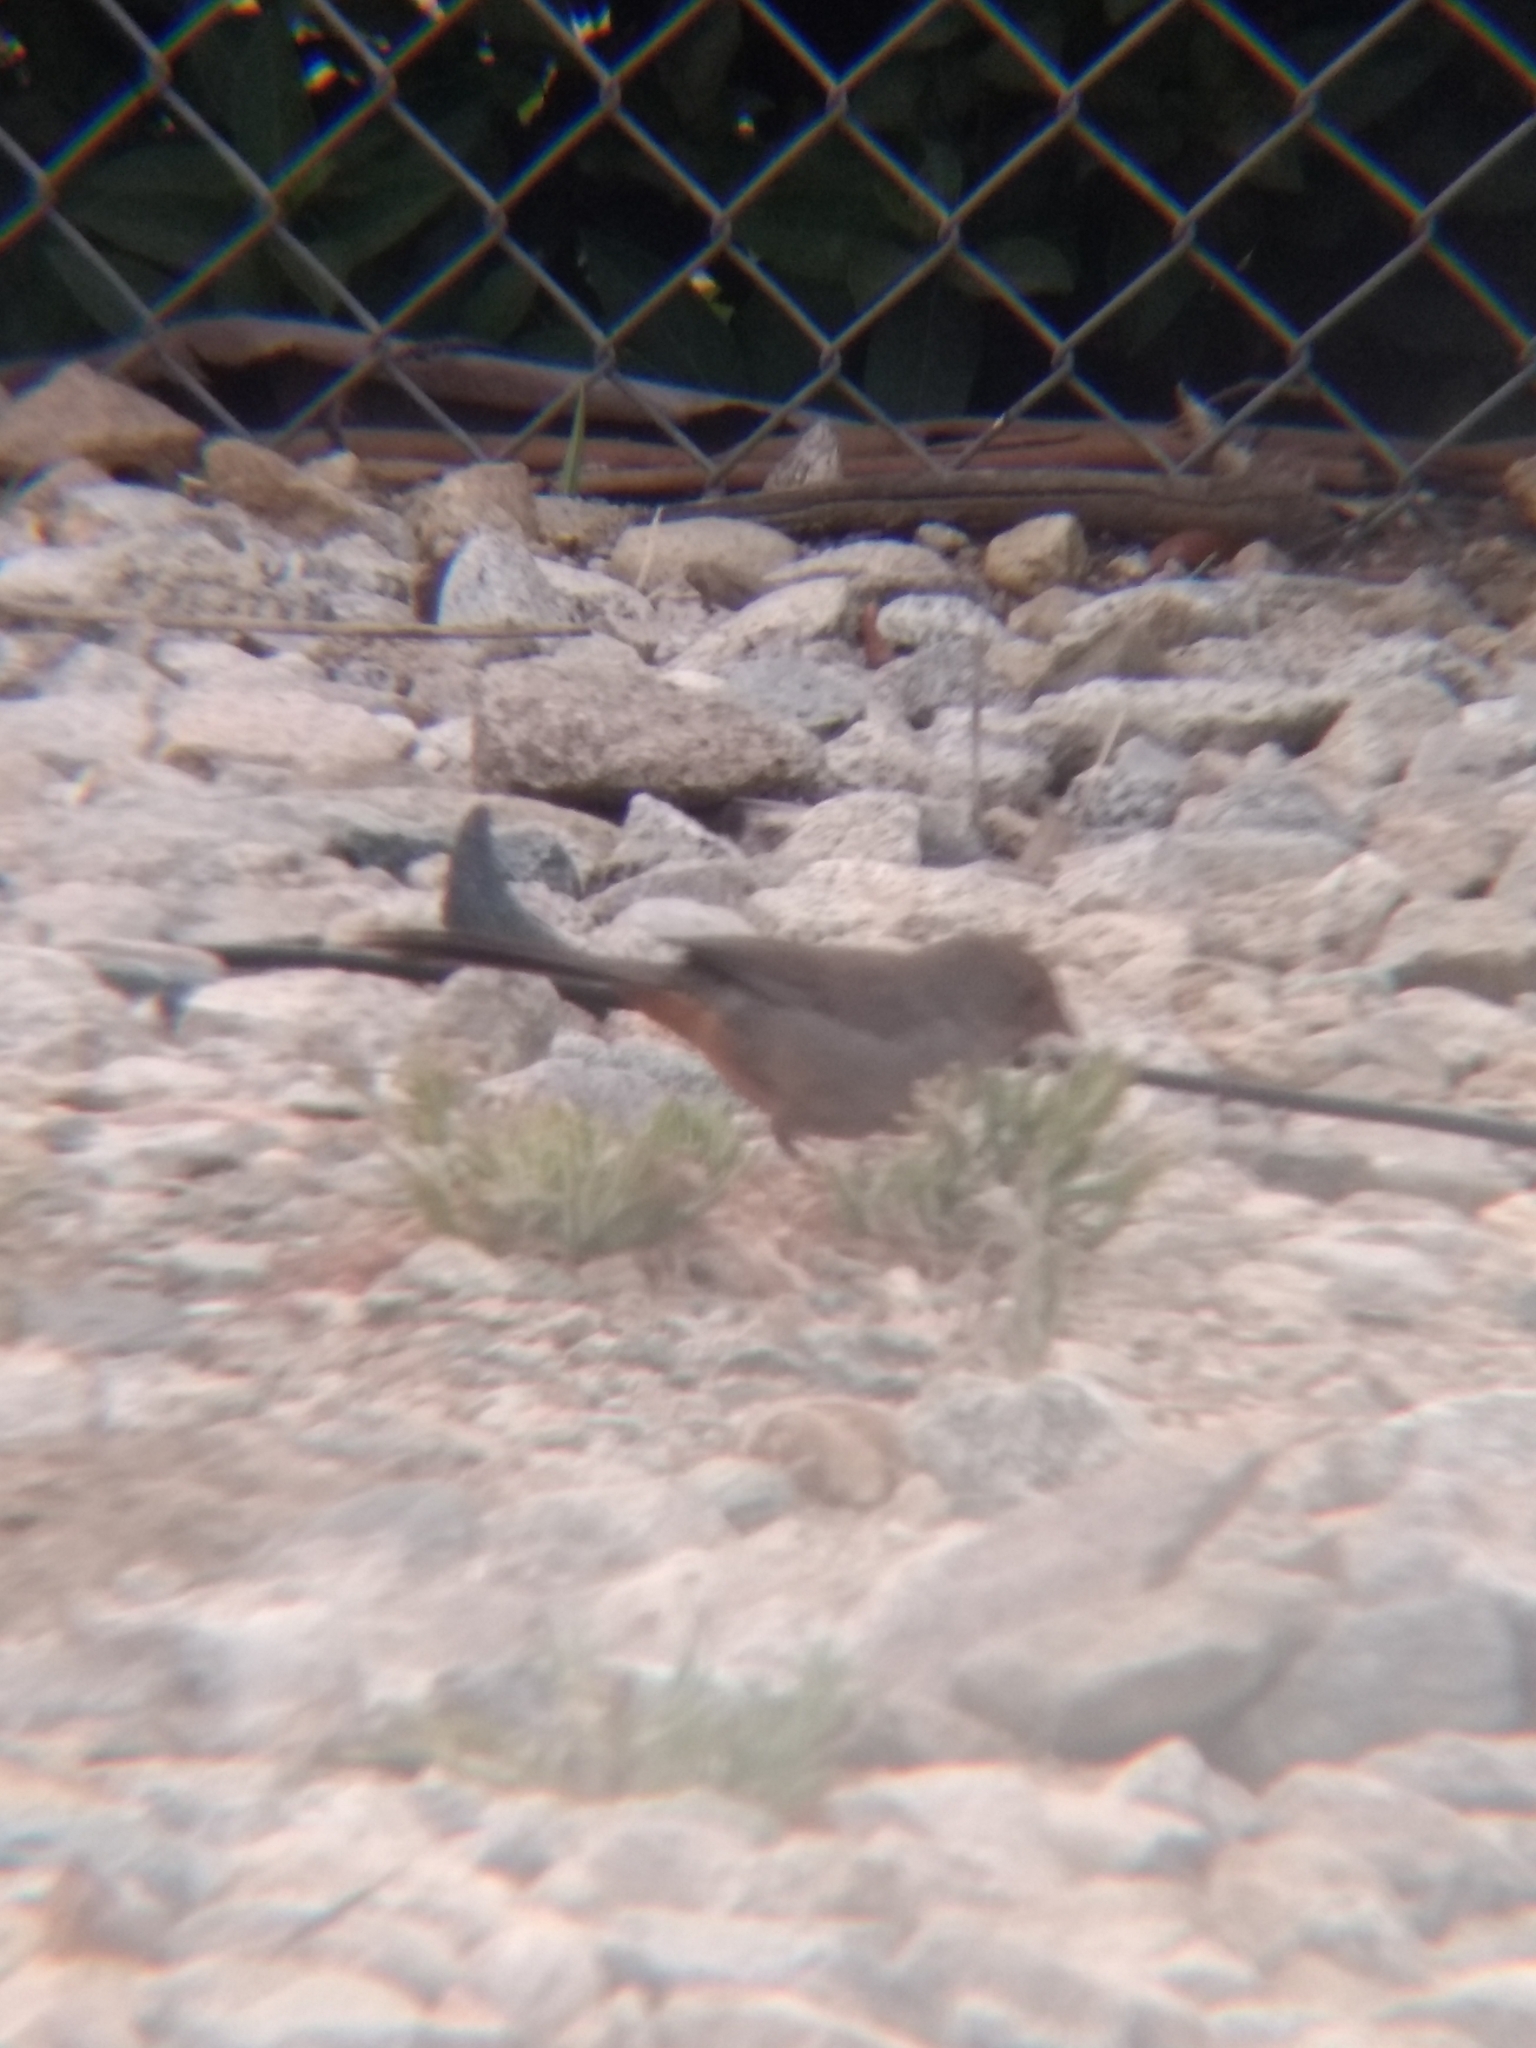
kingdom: Animalia
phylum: Chordata
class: Aves
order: Passeriformes
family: Passerellidae
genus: Melozone
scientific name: Melozone crissalis
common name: California towhee
